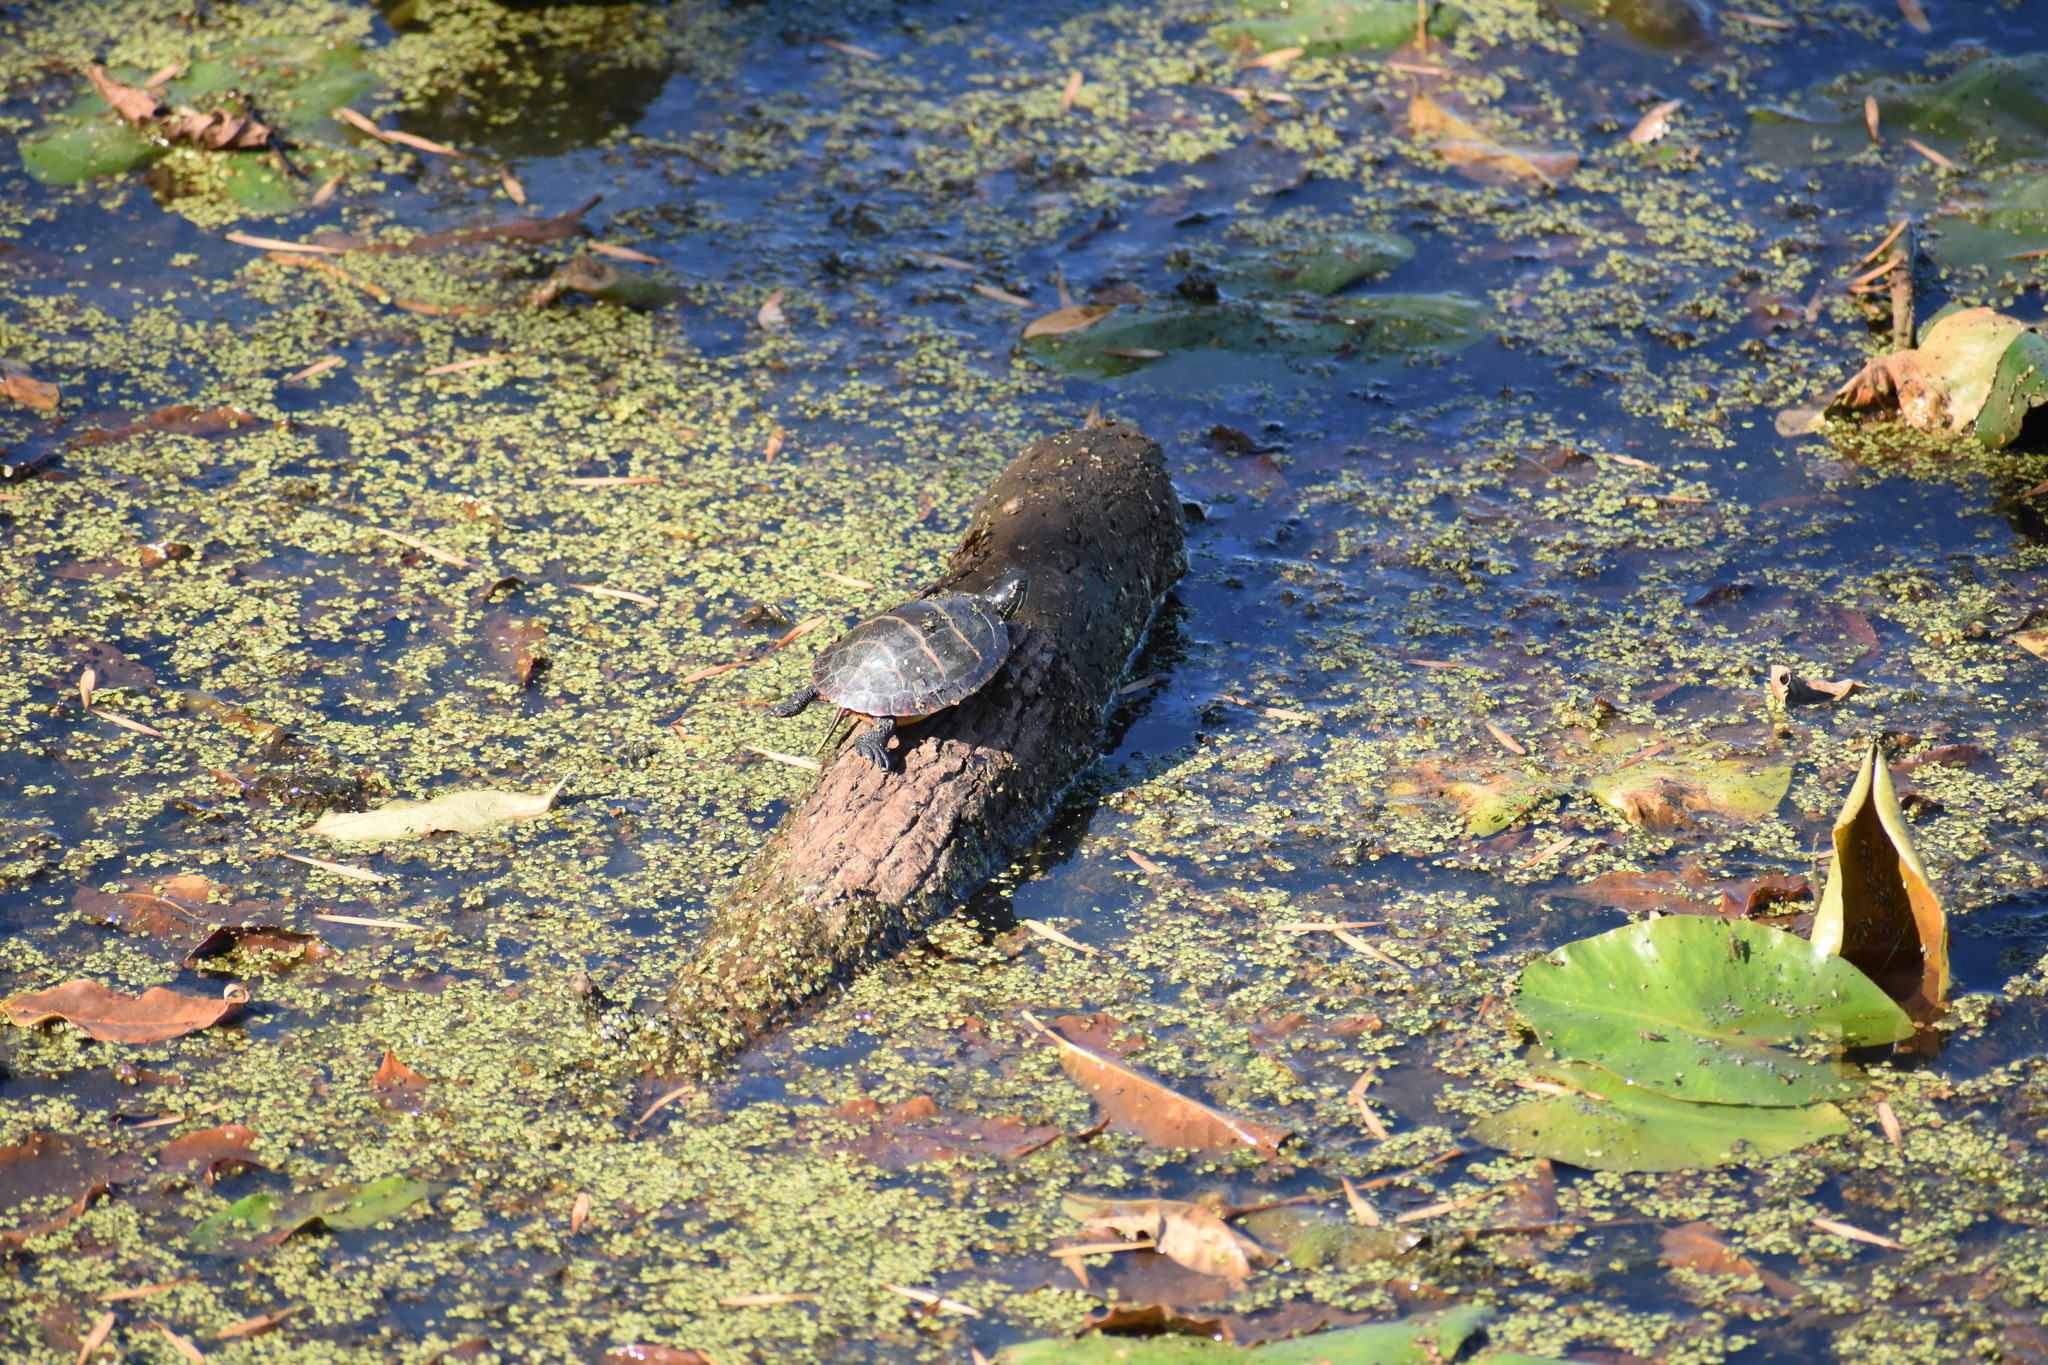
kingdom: Animalia
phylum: Chordata
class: Testudines
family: Emydidae
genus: Chrysemys
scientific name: Chrysemys picta
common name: Painted turtle
